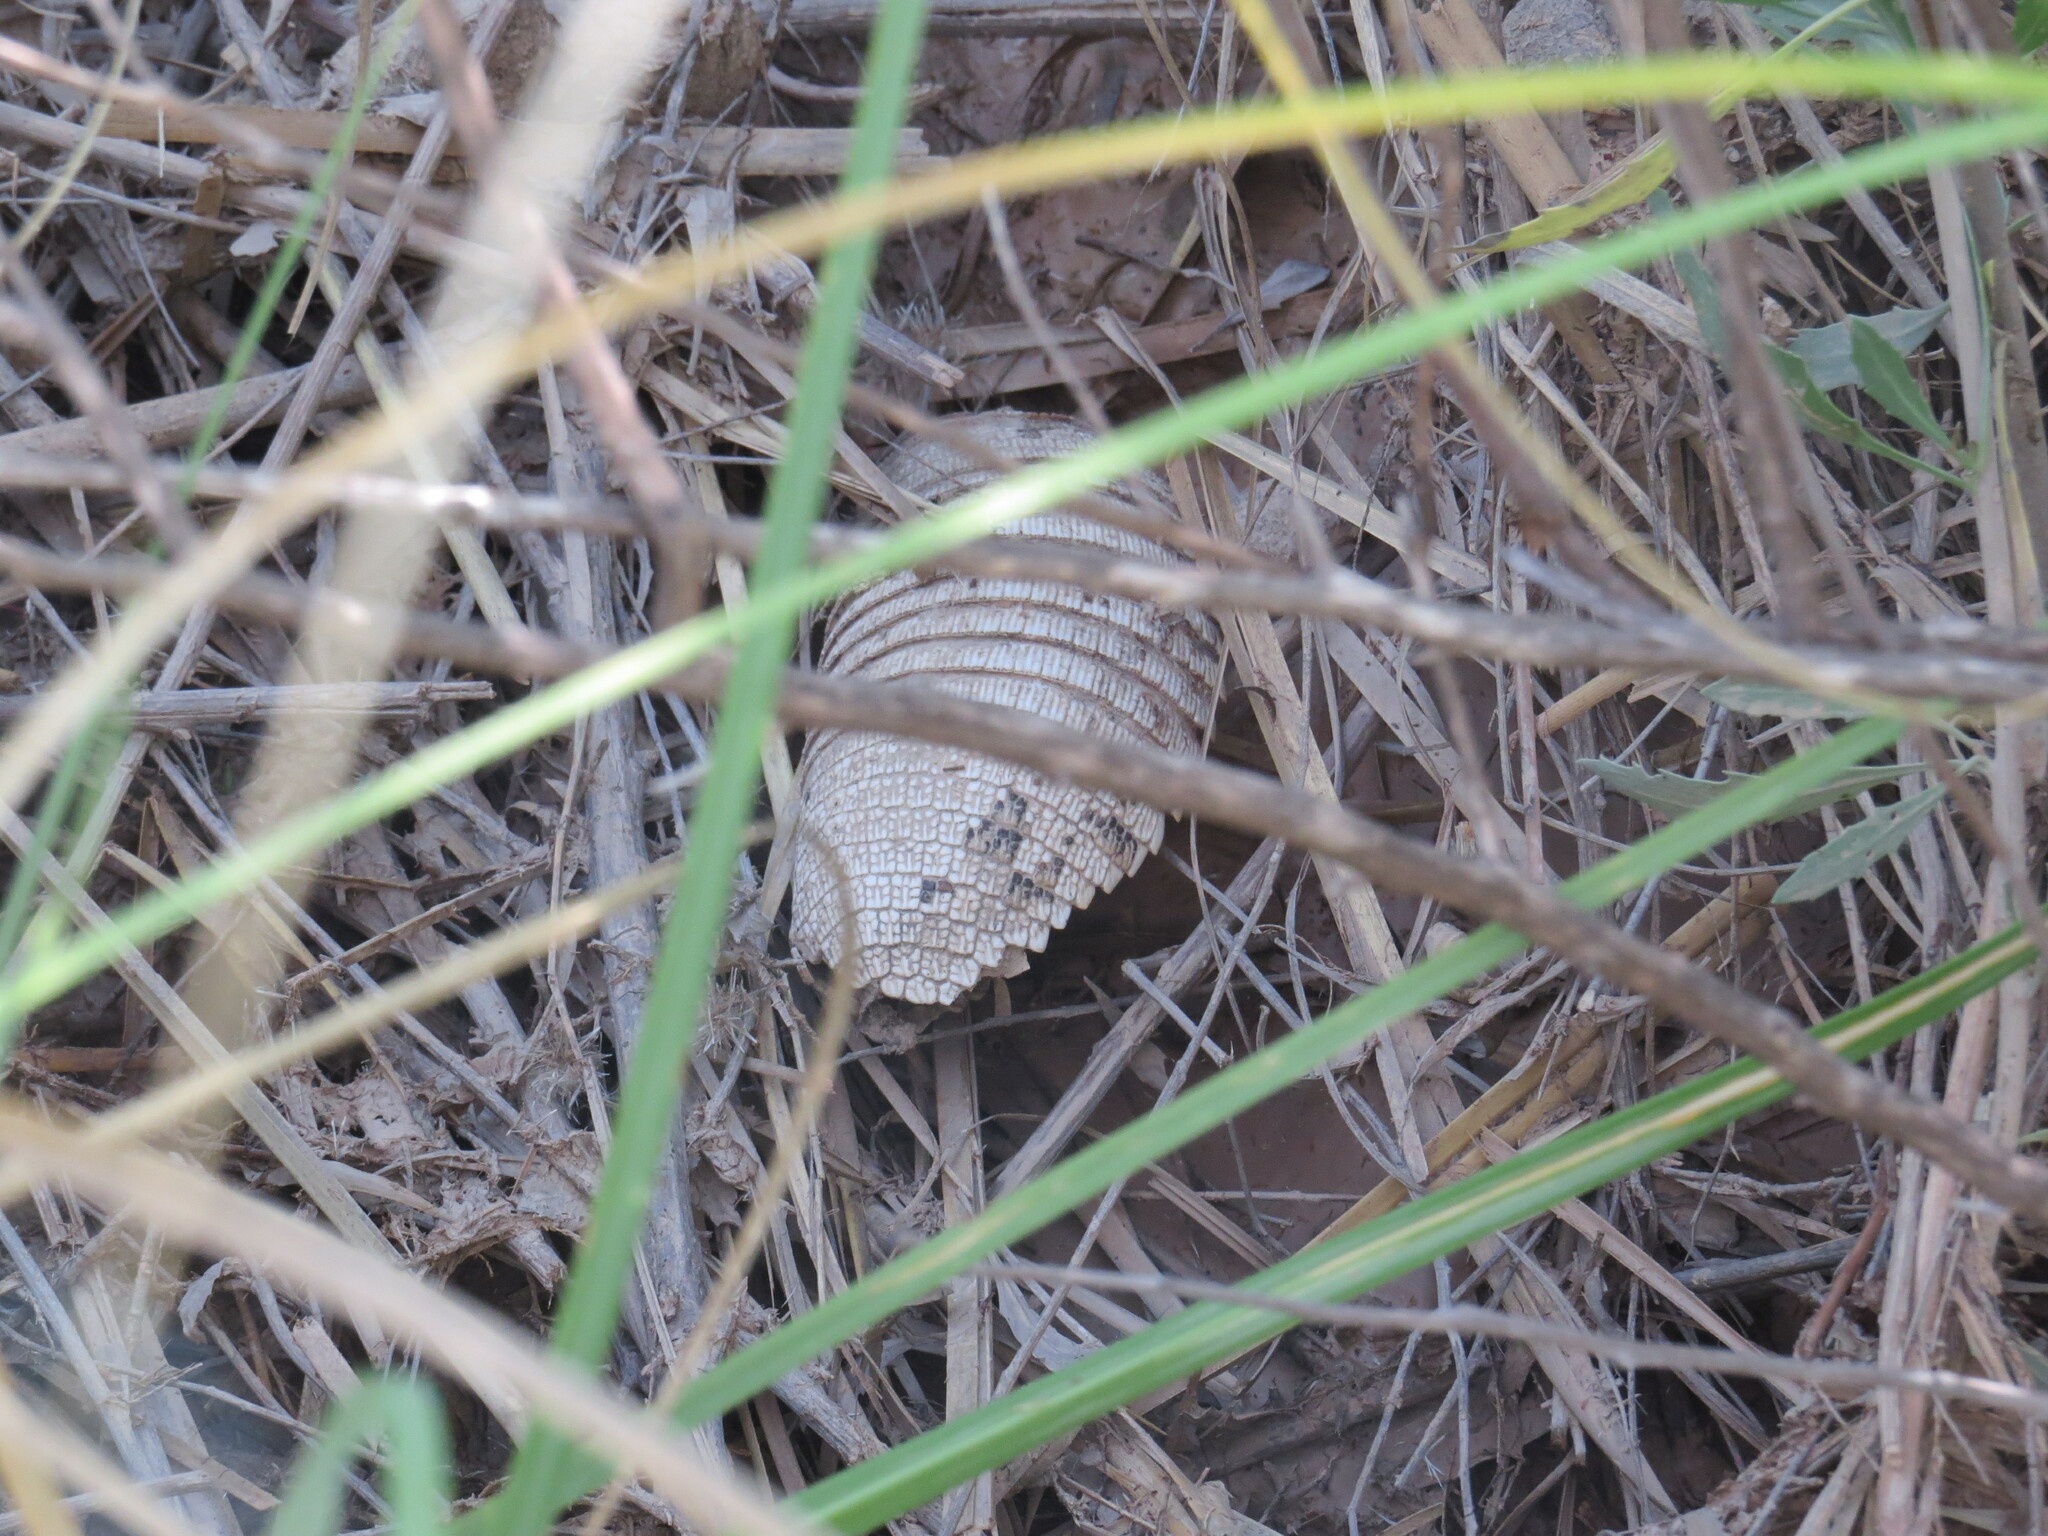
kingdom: Animalia
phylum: Chordata
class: Mammalia
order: Cingulata
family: Dasypodidae
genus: Chaetophractus
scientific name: Chaetophractus vellerosus
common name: Screaming hairy armadillo
